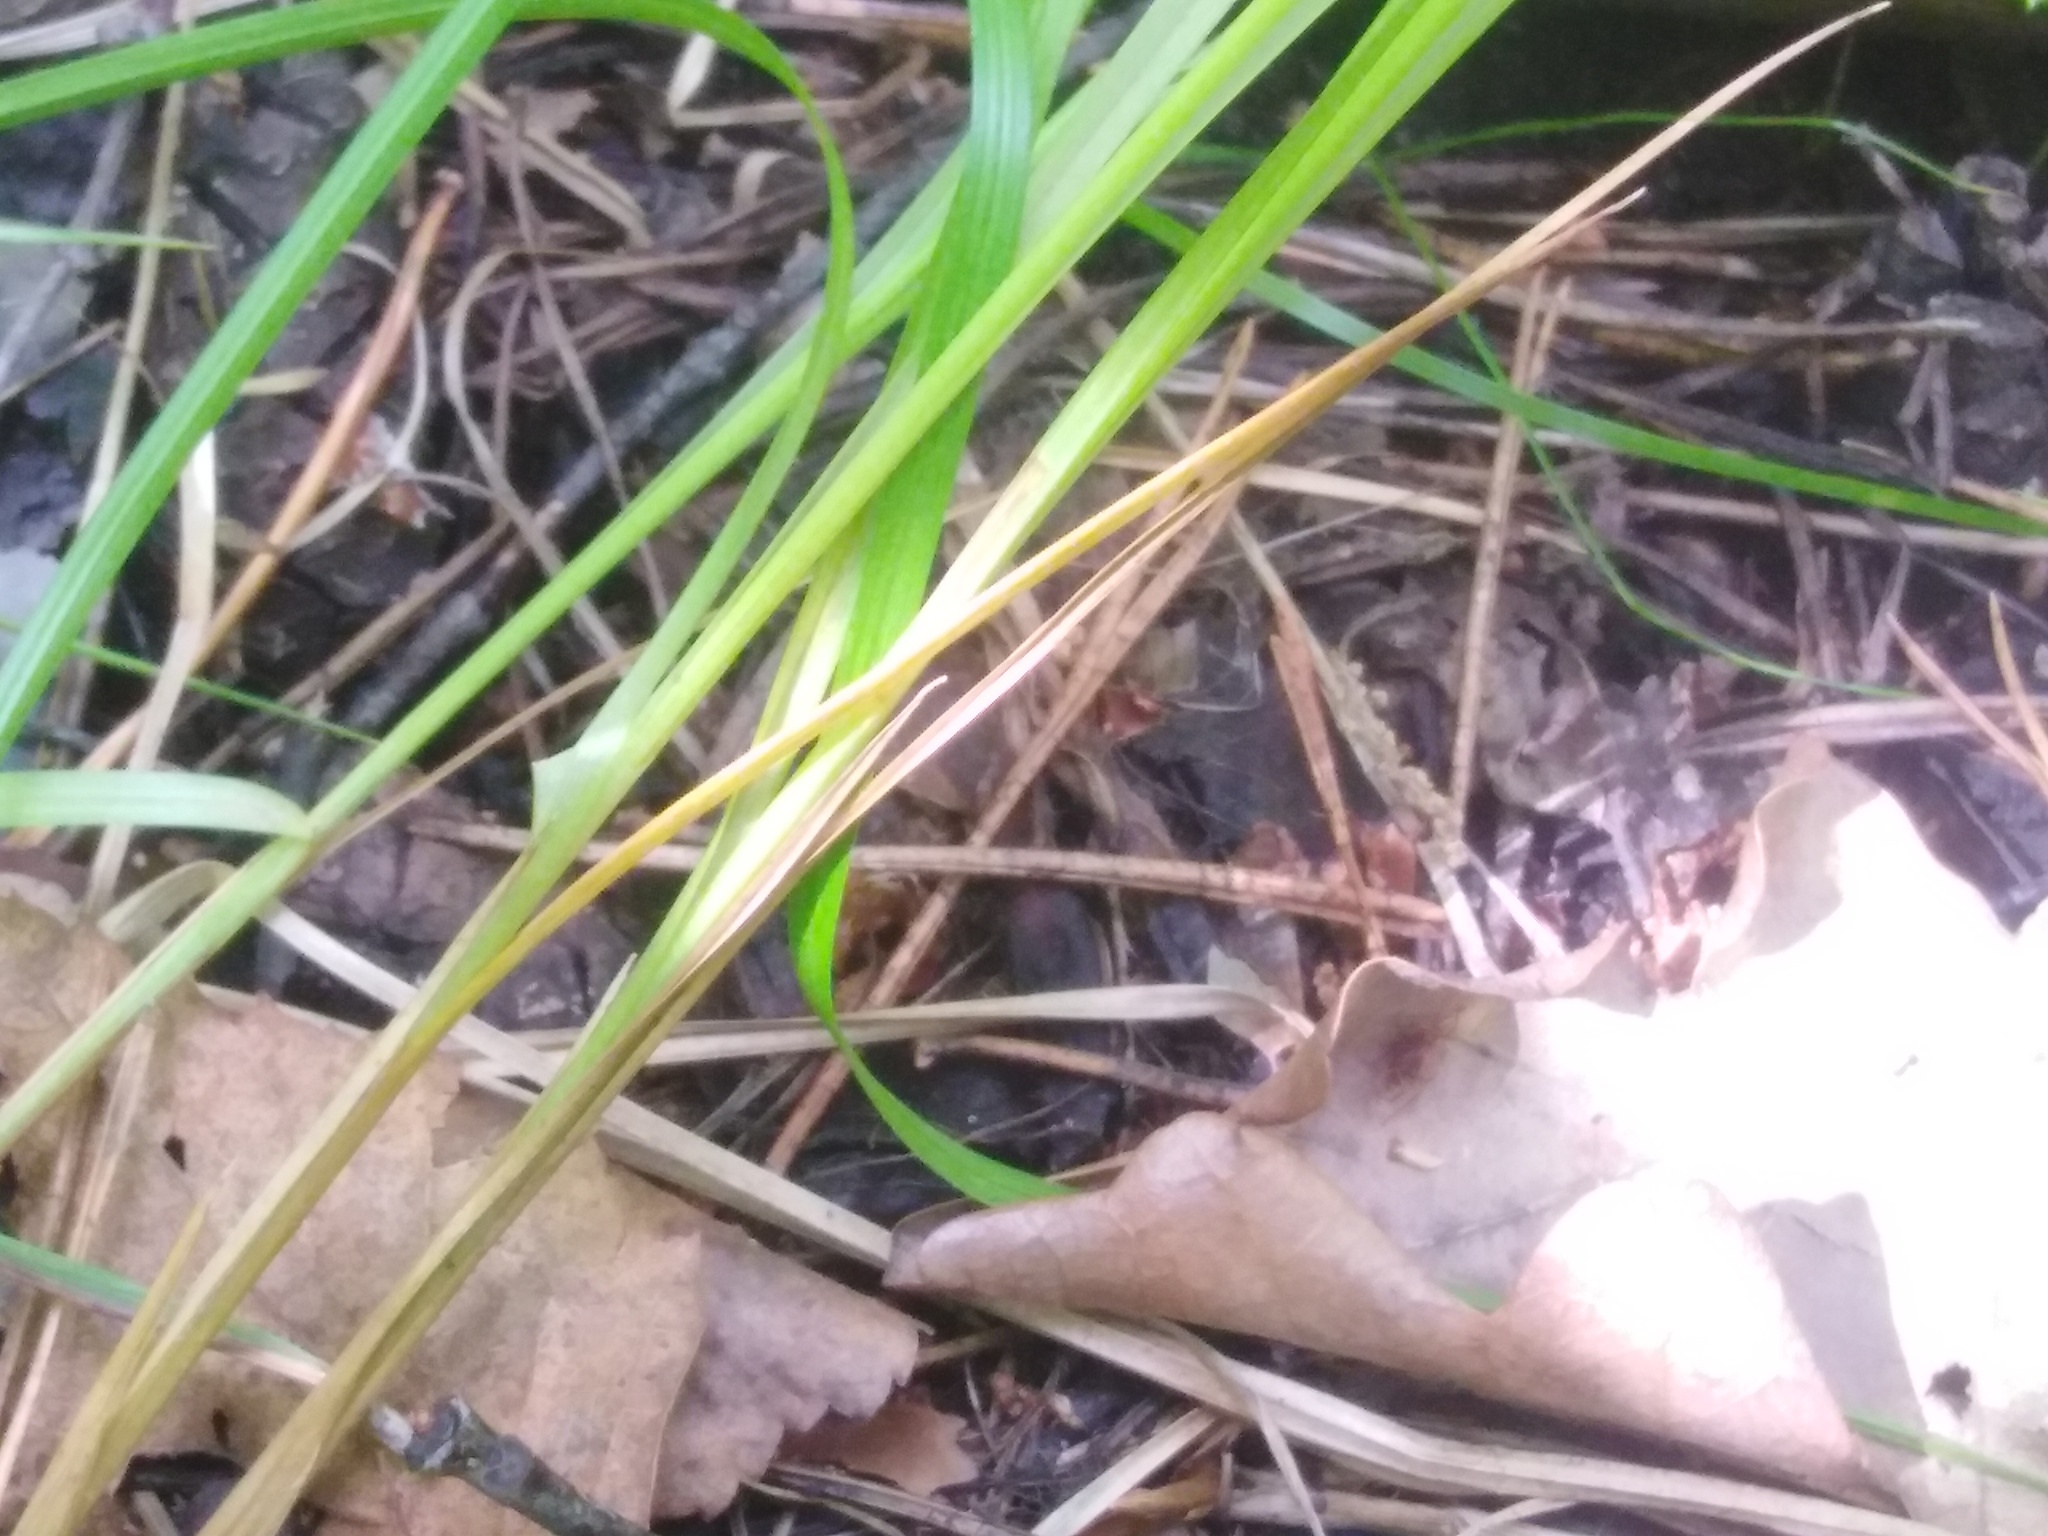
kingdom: Plantae
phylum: Tracheophyta
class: Liliopsida
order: Poales
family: Cyperaceae
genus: Carex
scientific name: Carex elongata
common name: Elongated sedge
